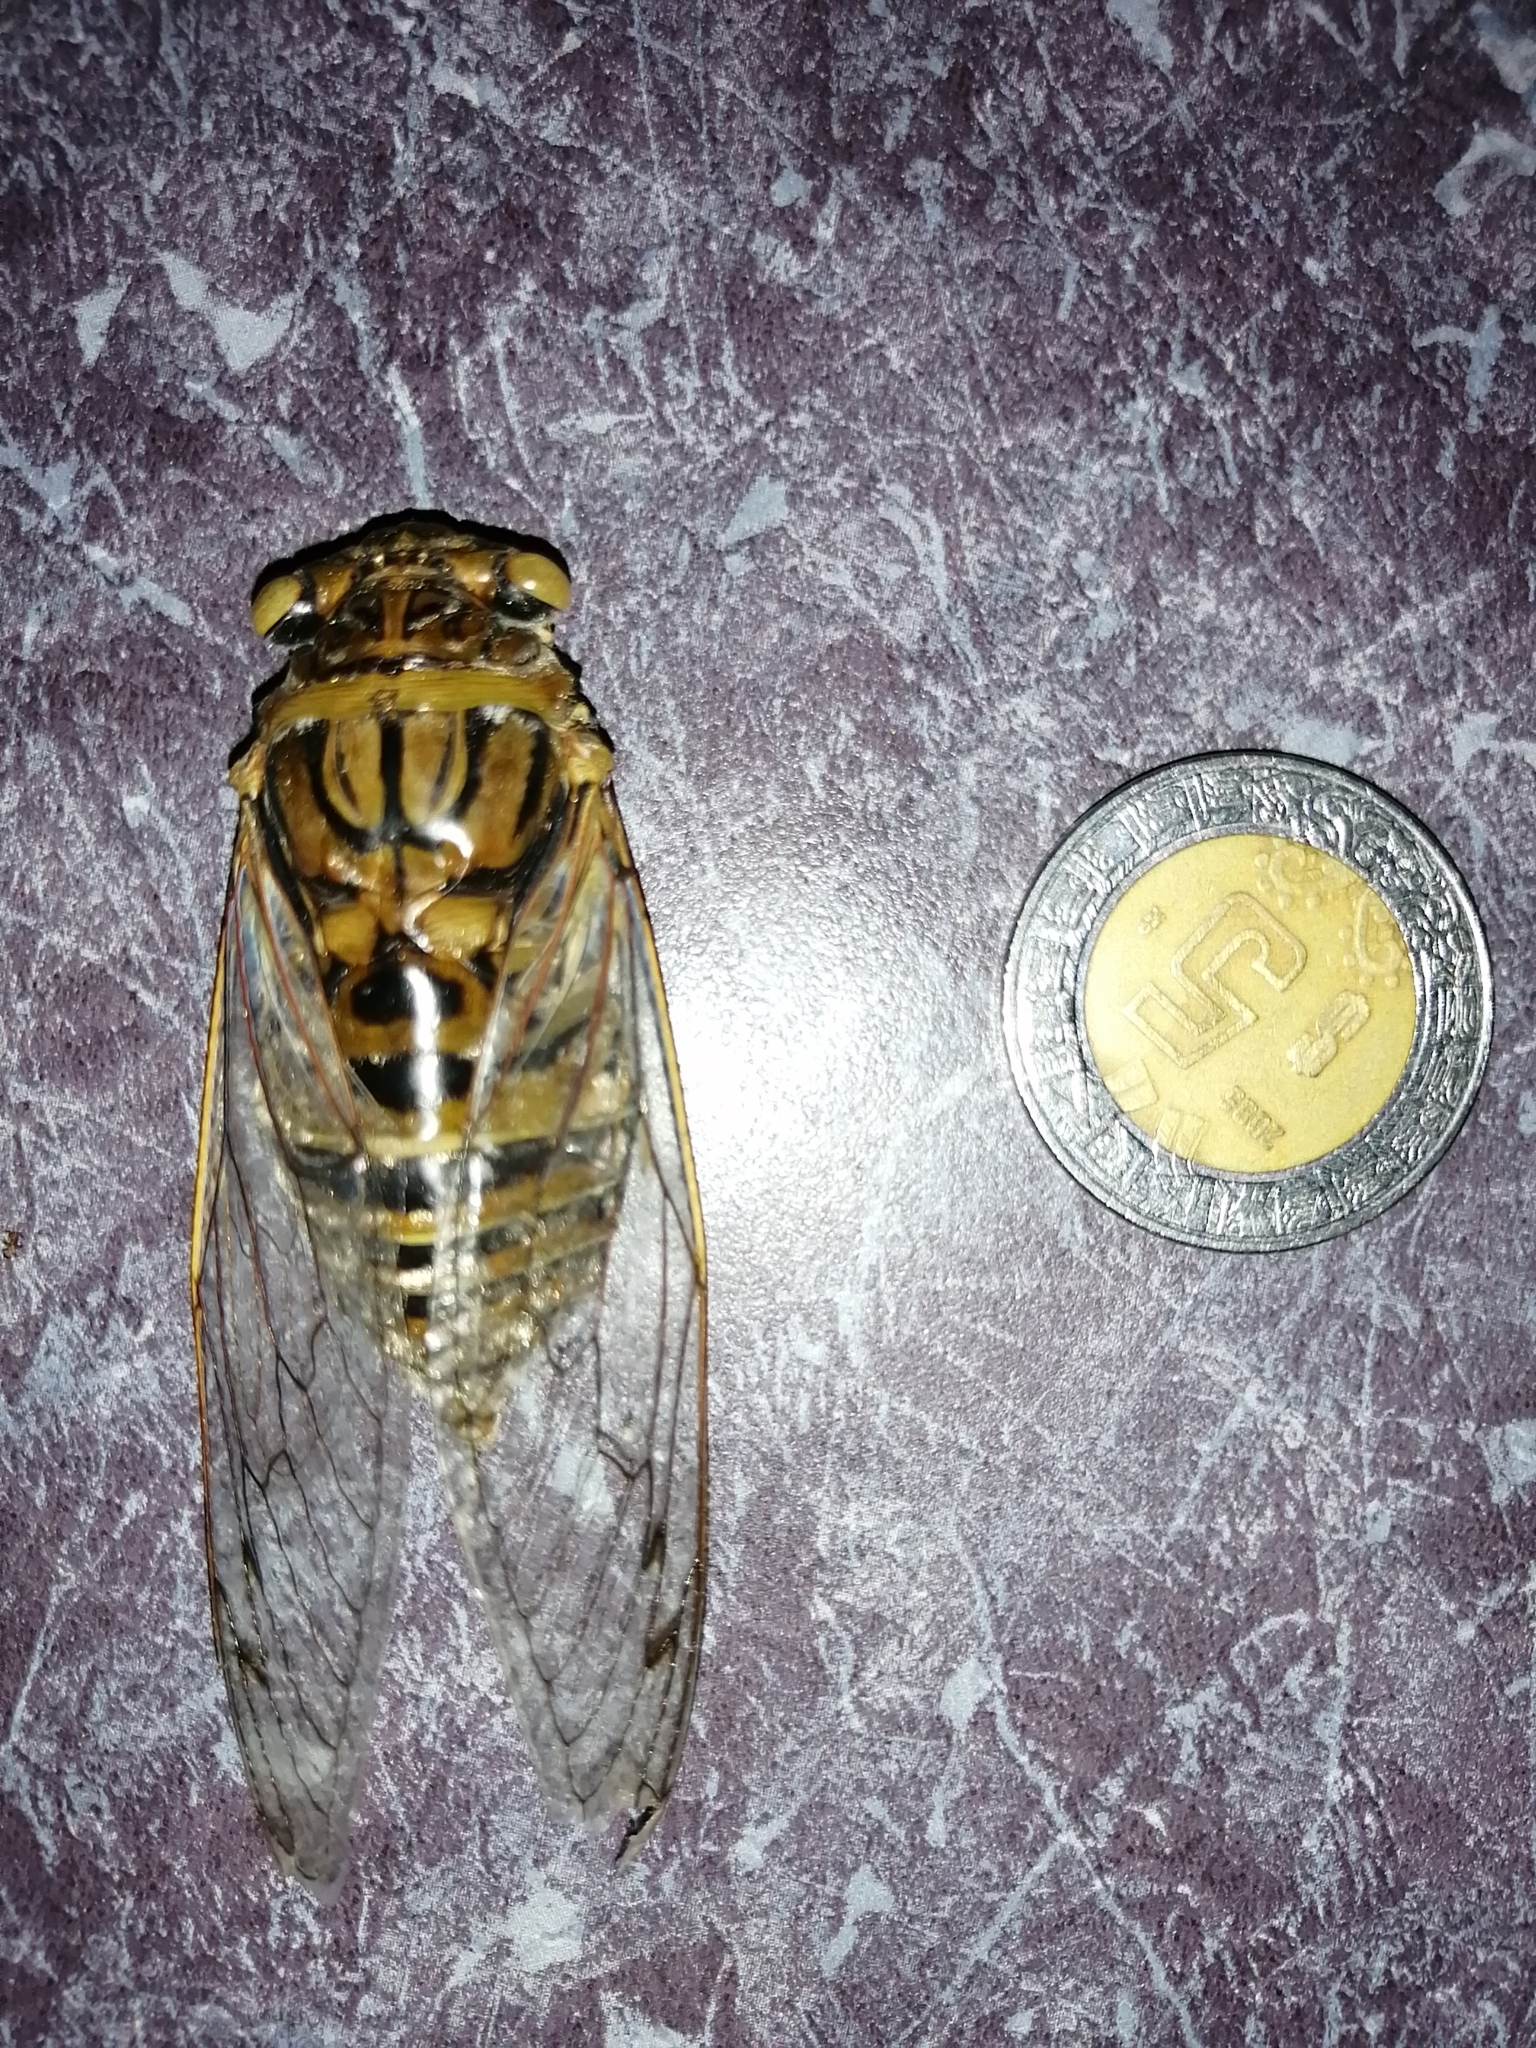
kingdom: Animalia
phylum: Arthropoda
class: Insecta
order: Hemiptera
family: Cicadidae
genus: Quesada
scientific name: Quesada gigas
